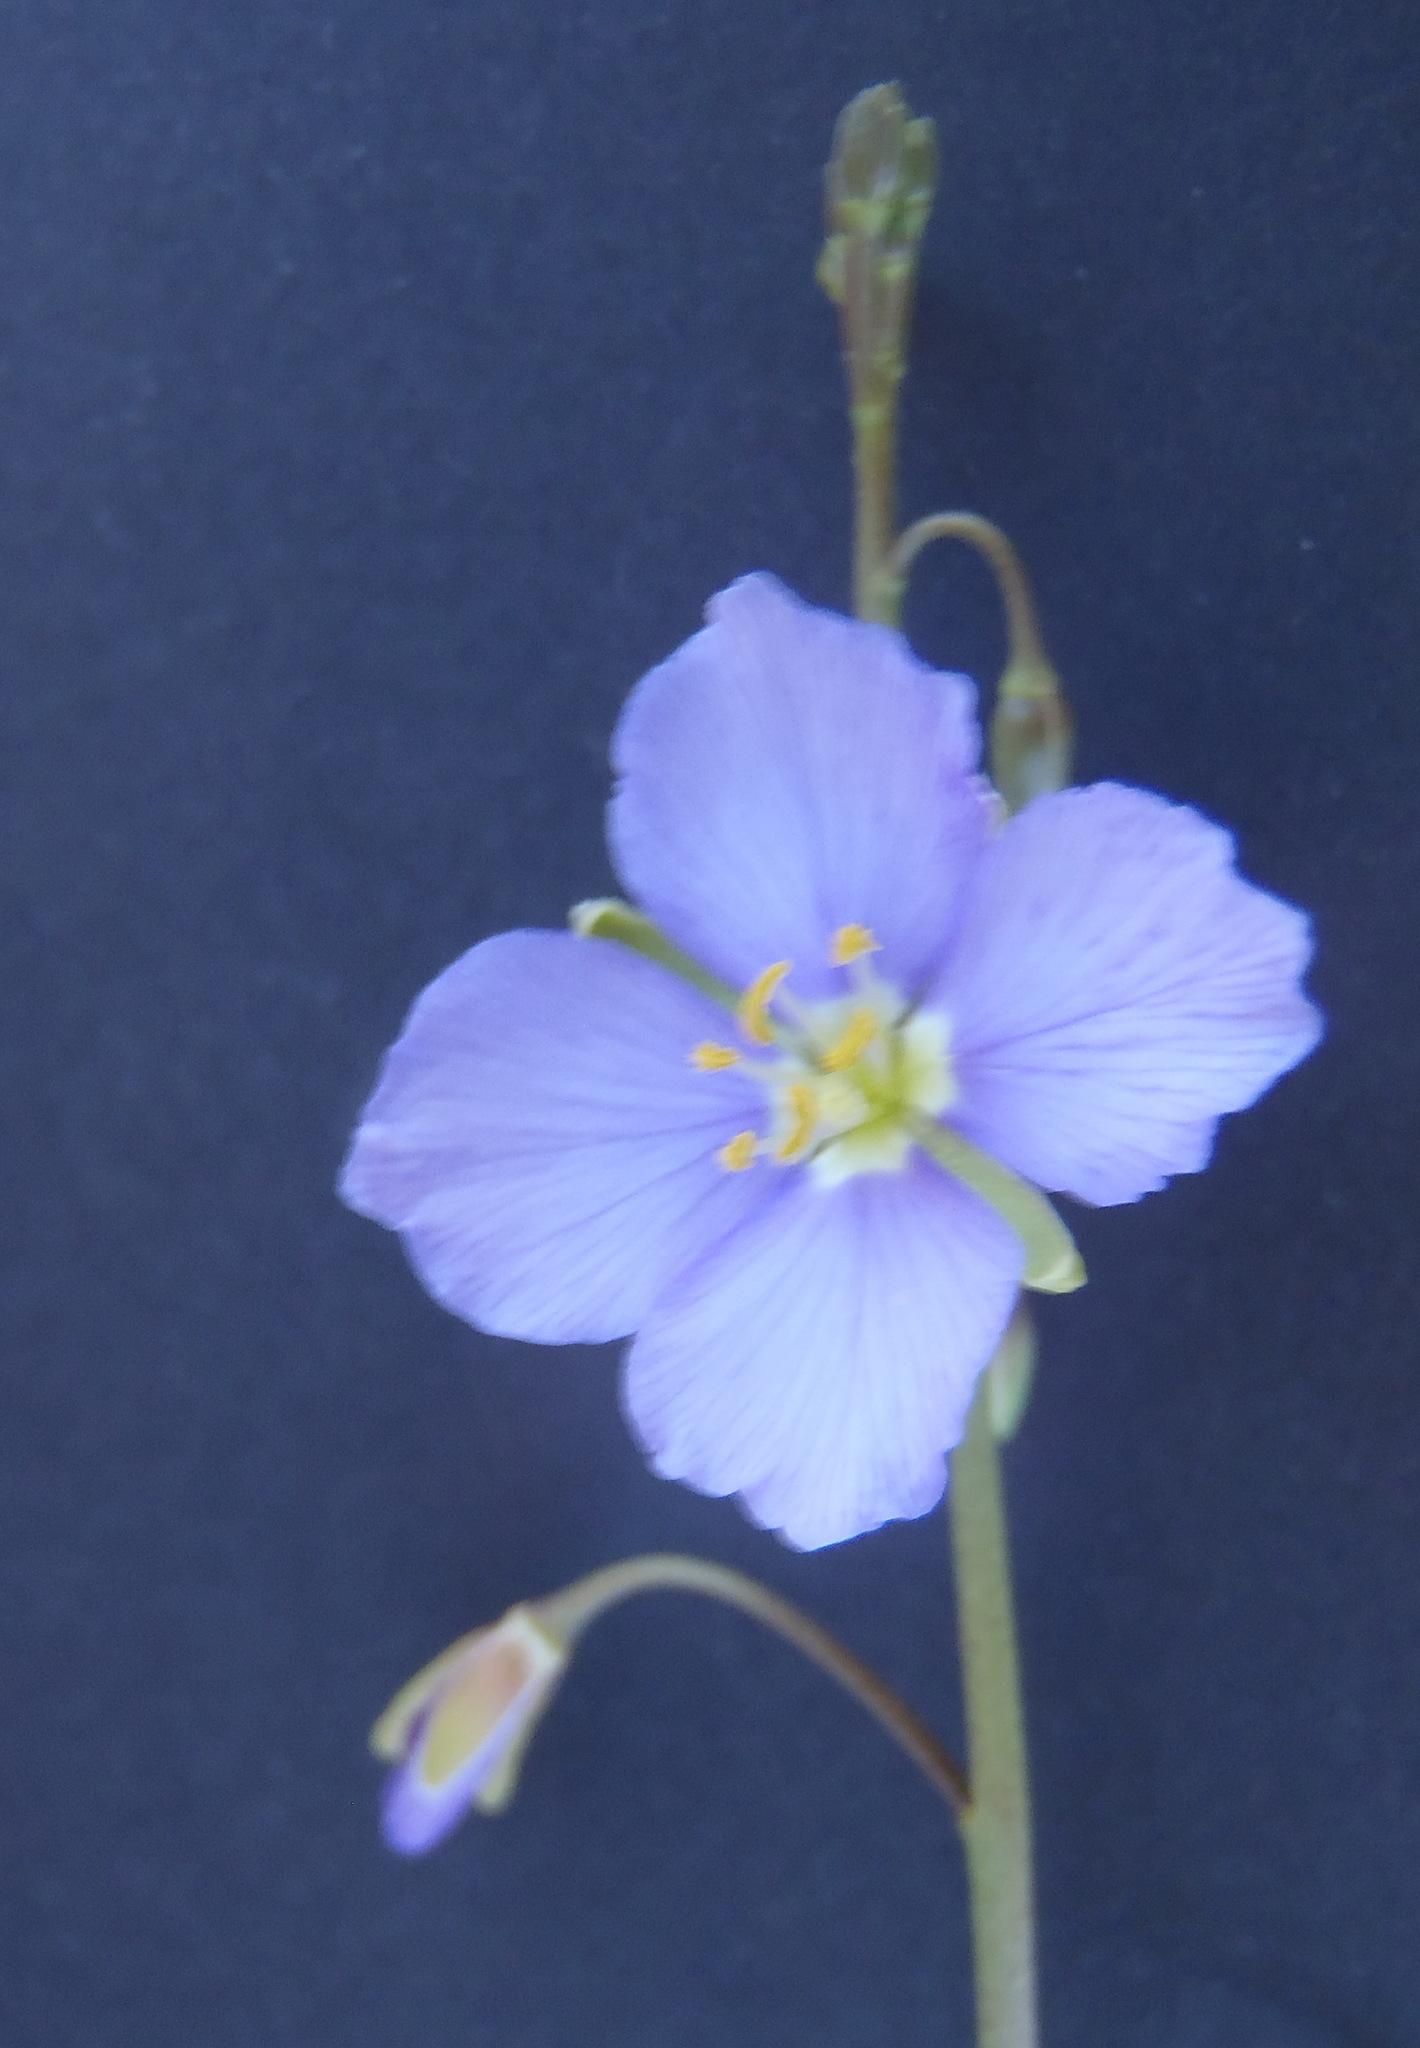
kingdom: Plantae
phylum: Tracheophyta
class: Magnoliopsida
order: Brassicales
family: Brassicaceae
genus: Heliophila
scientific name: Heliophila suavissima
